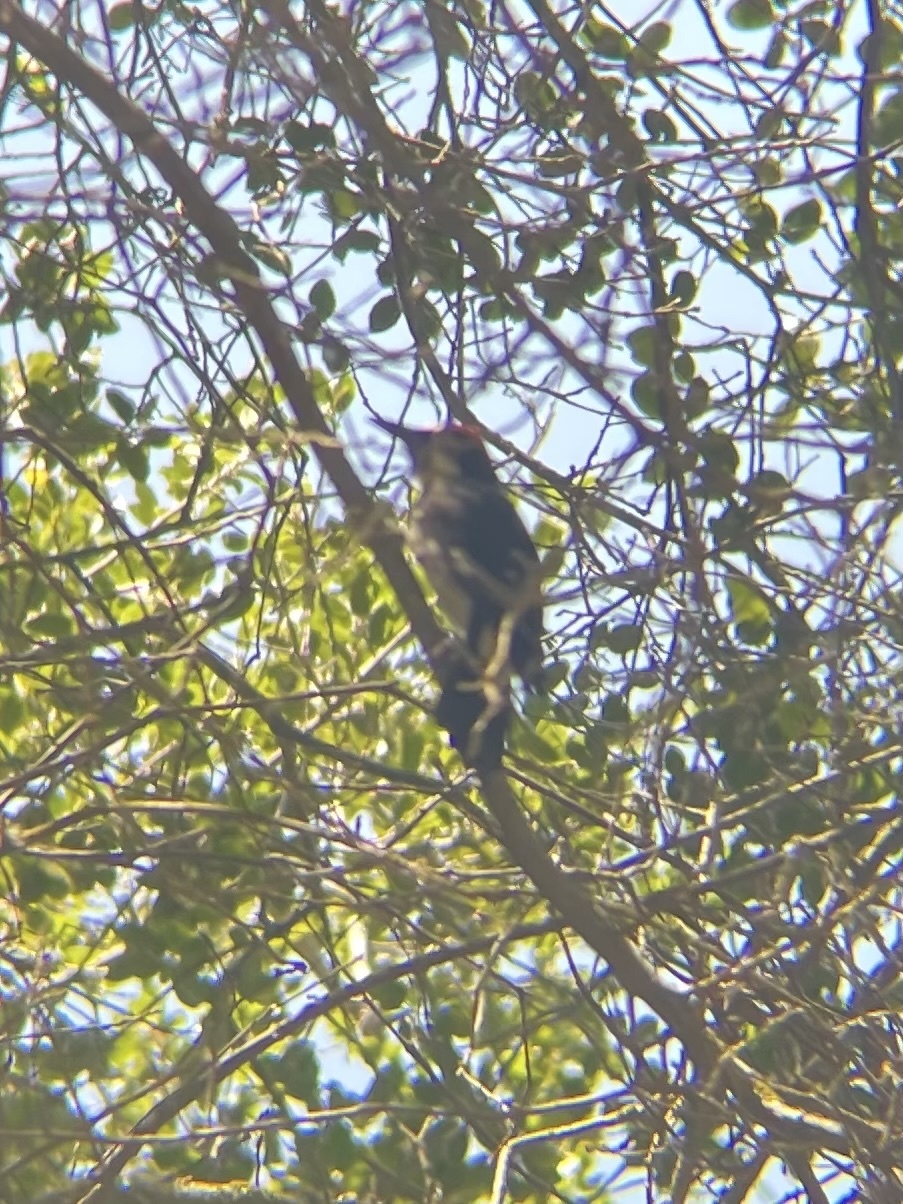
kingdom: Animalia
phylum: Chordata
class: Aves
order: Piciformes
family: Picidae
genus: Melanerpes
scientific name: Melanerpes formicivorus
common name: Acorn woodpecker
